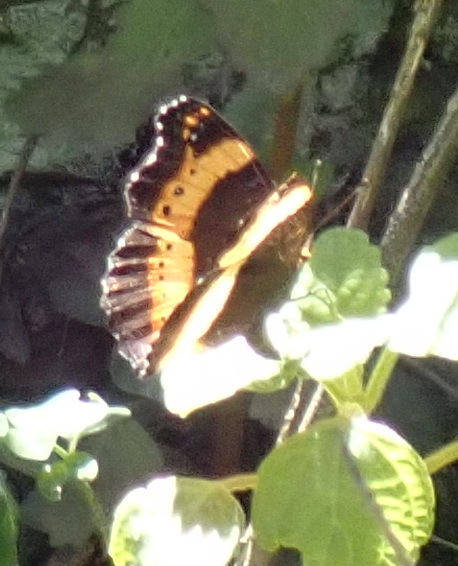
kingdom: Animalia
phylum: Arthropoda
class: Insecta
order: Lepidoptera
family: Nymphalidae
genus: Junonia
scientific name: Junonia archesia
